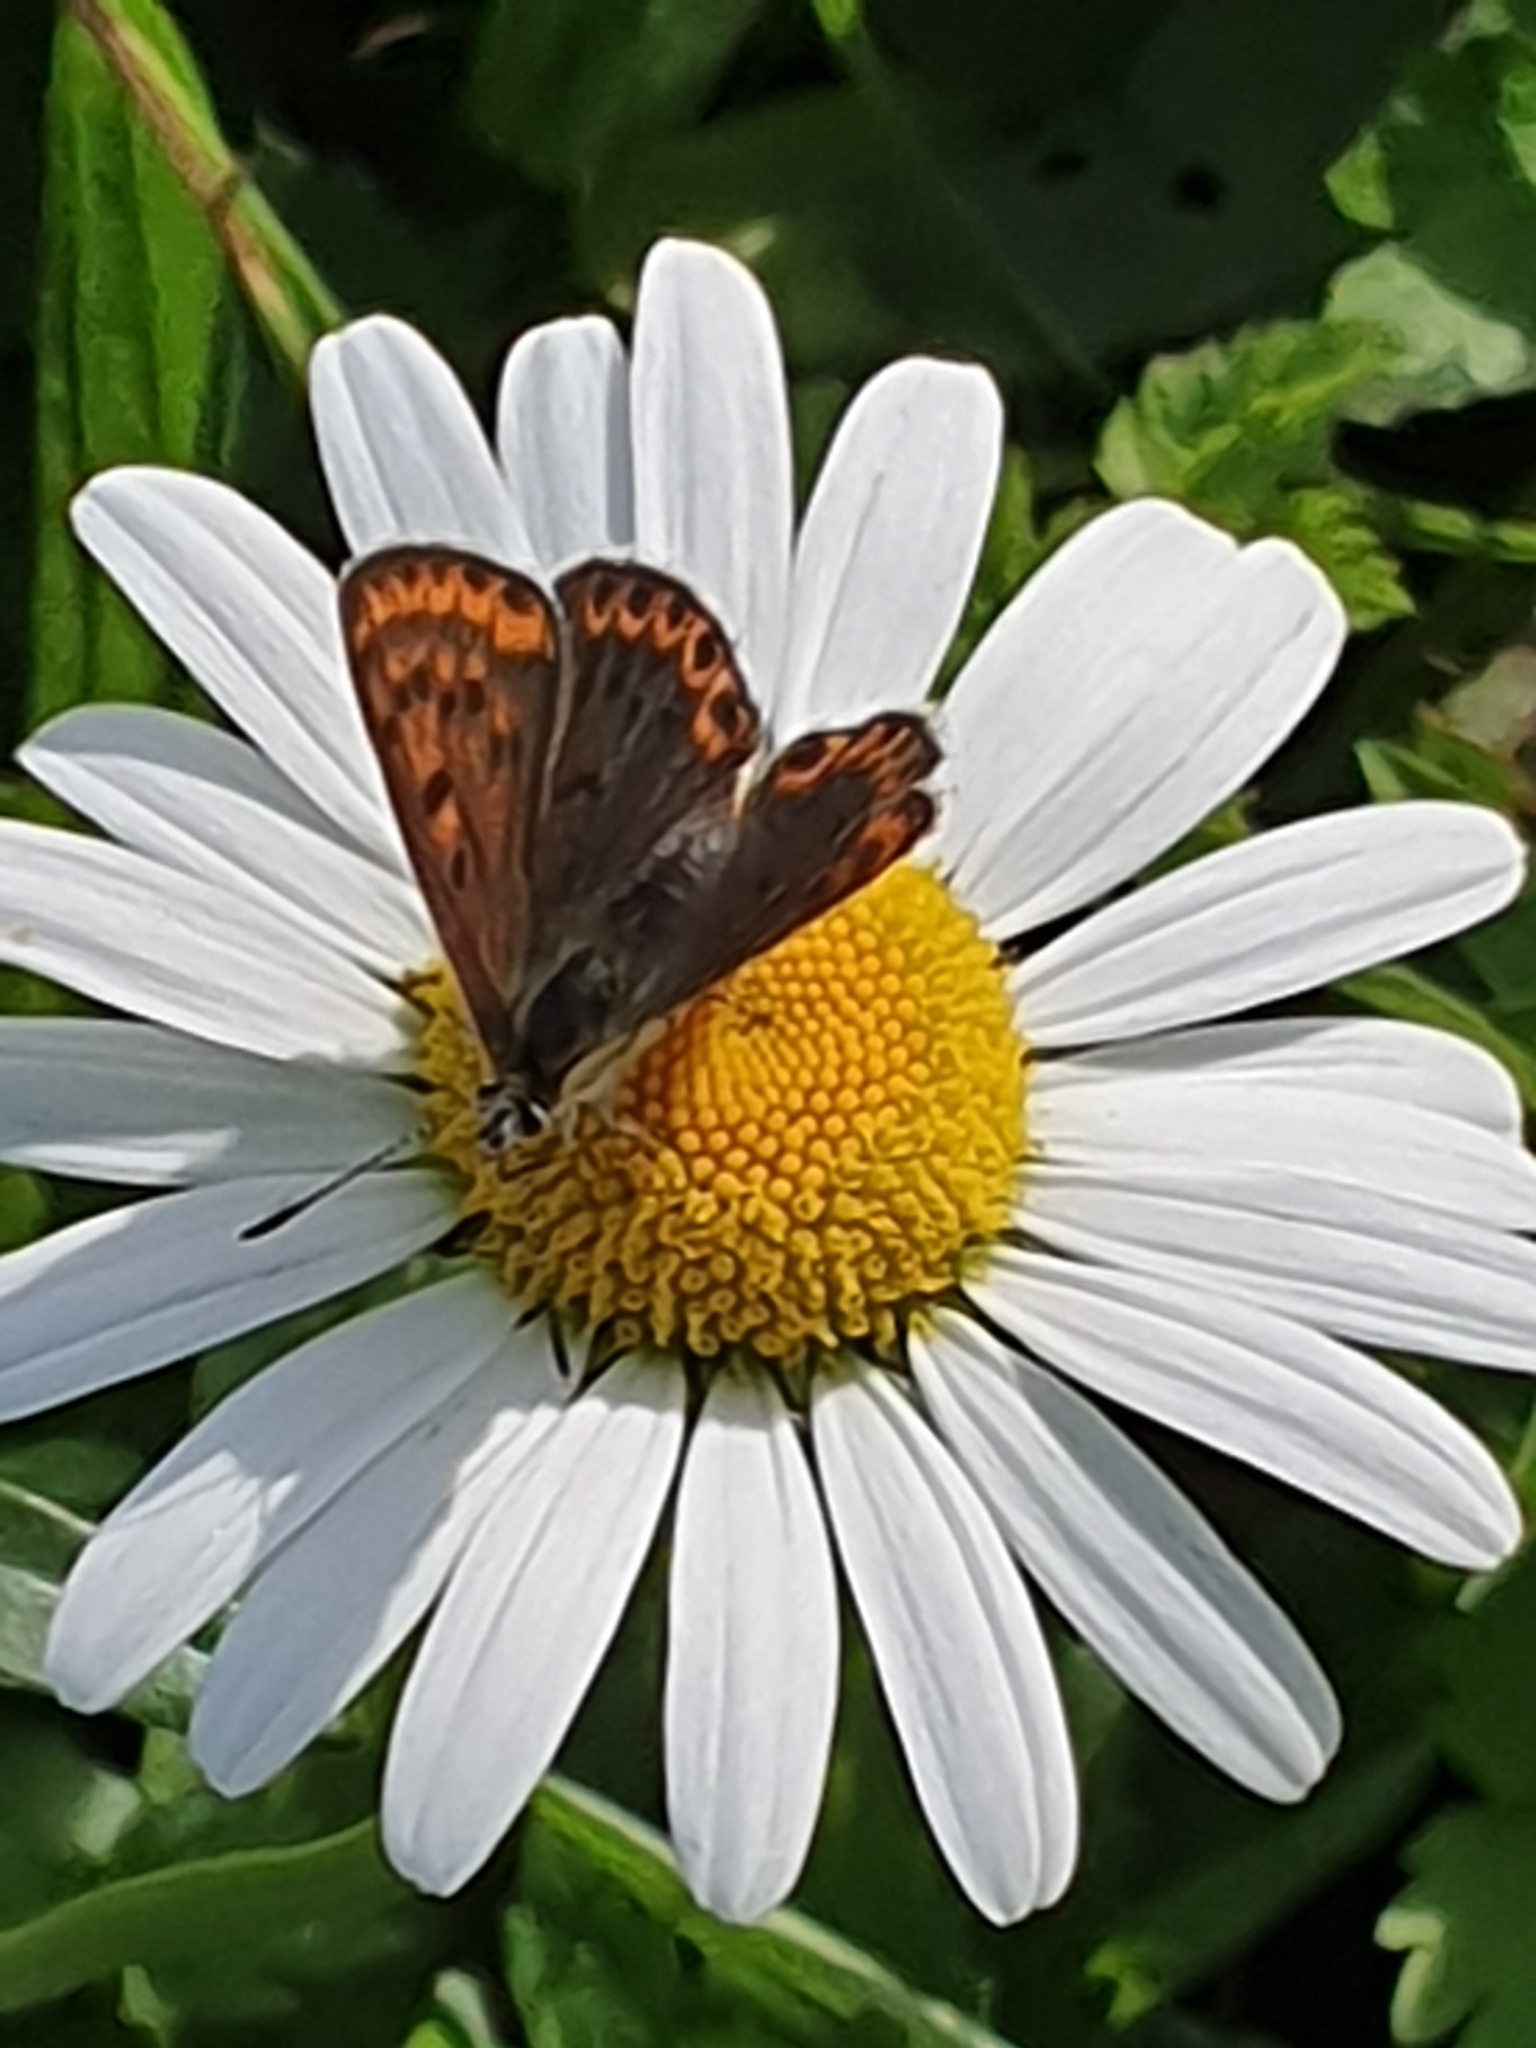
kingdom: Animalia
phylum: Arthropoda
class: Insecta
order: Lepidoptera
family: Lycaenidae
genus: Loweia
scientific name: Loweia tityrus
